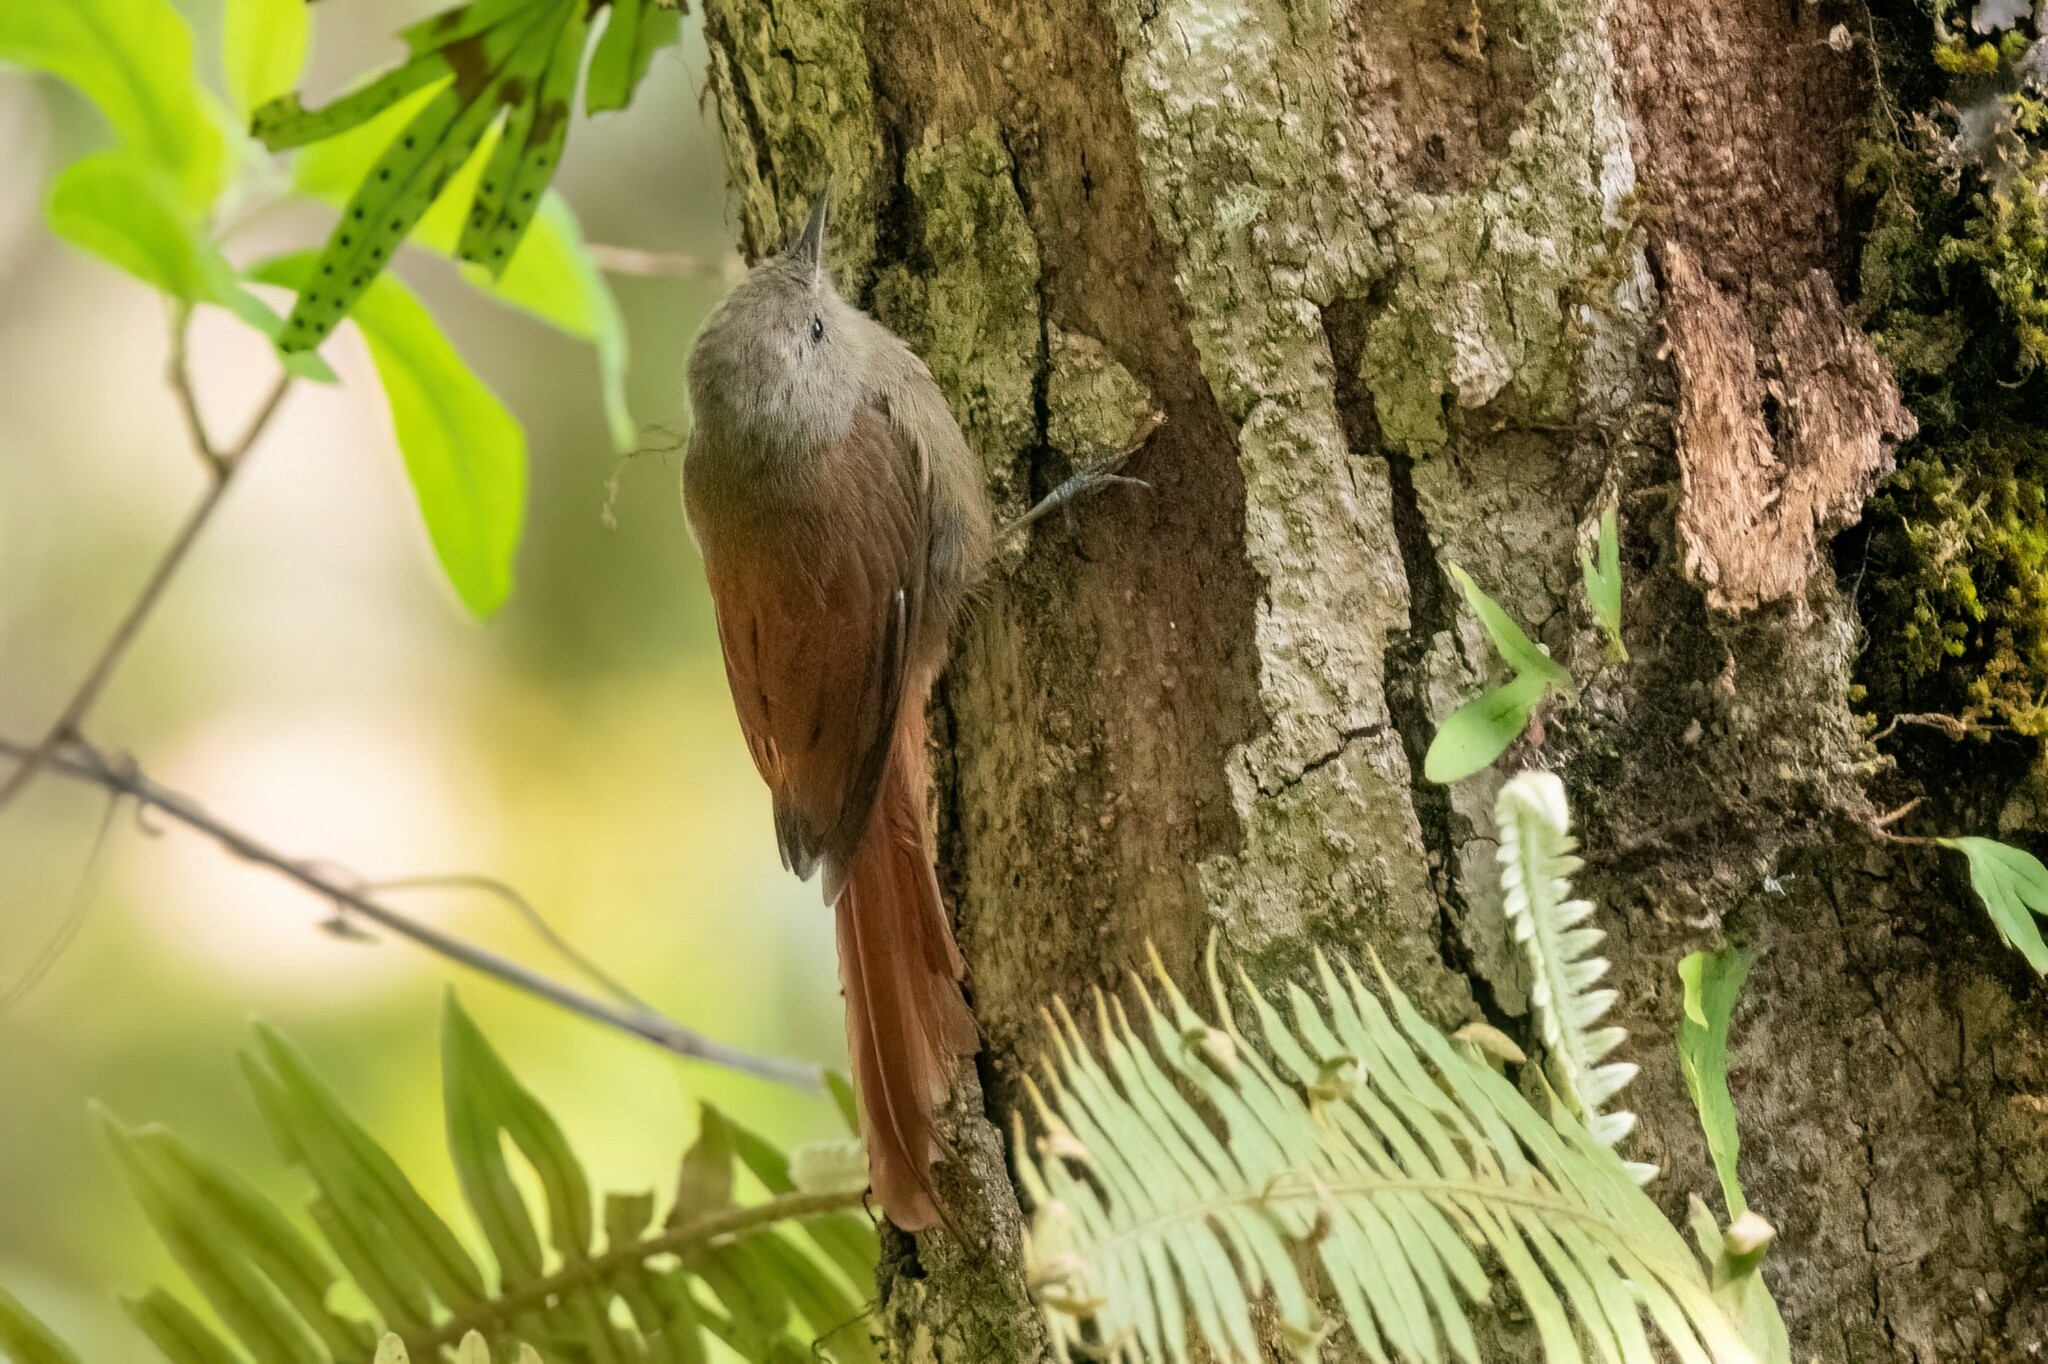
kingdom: Animalia
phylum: Chordata
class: Aves
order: Passeriformes
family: Furnariidae
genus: Sittasomus
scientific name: Sittasomus griseicapillus
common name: Olivaceous woodcreeper
